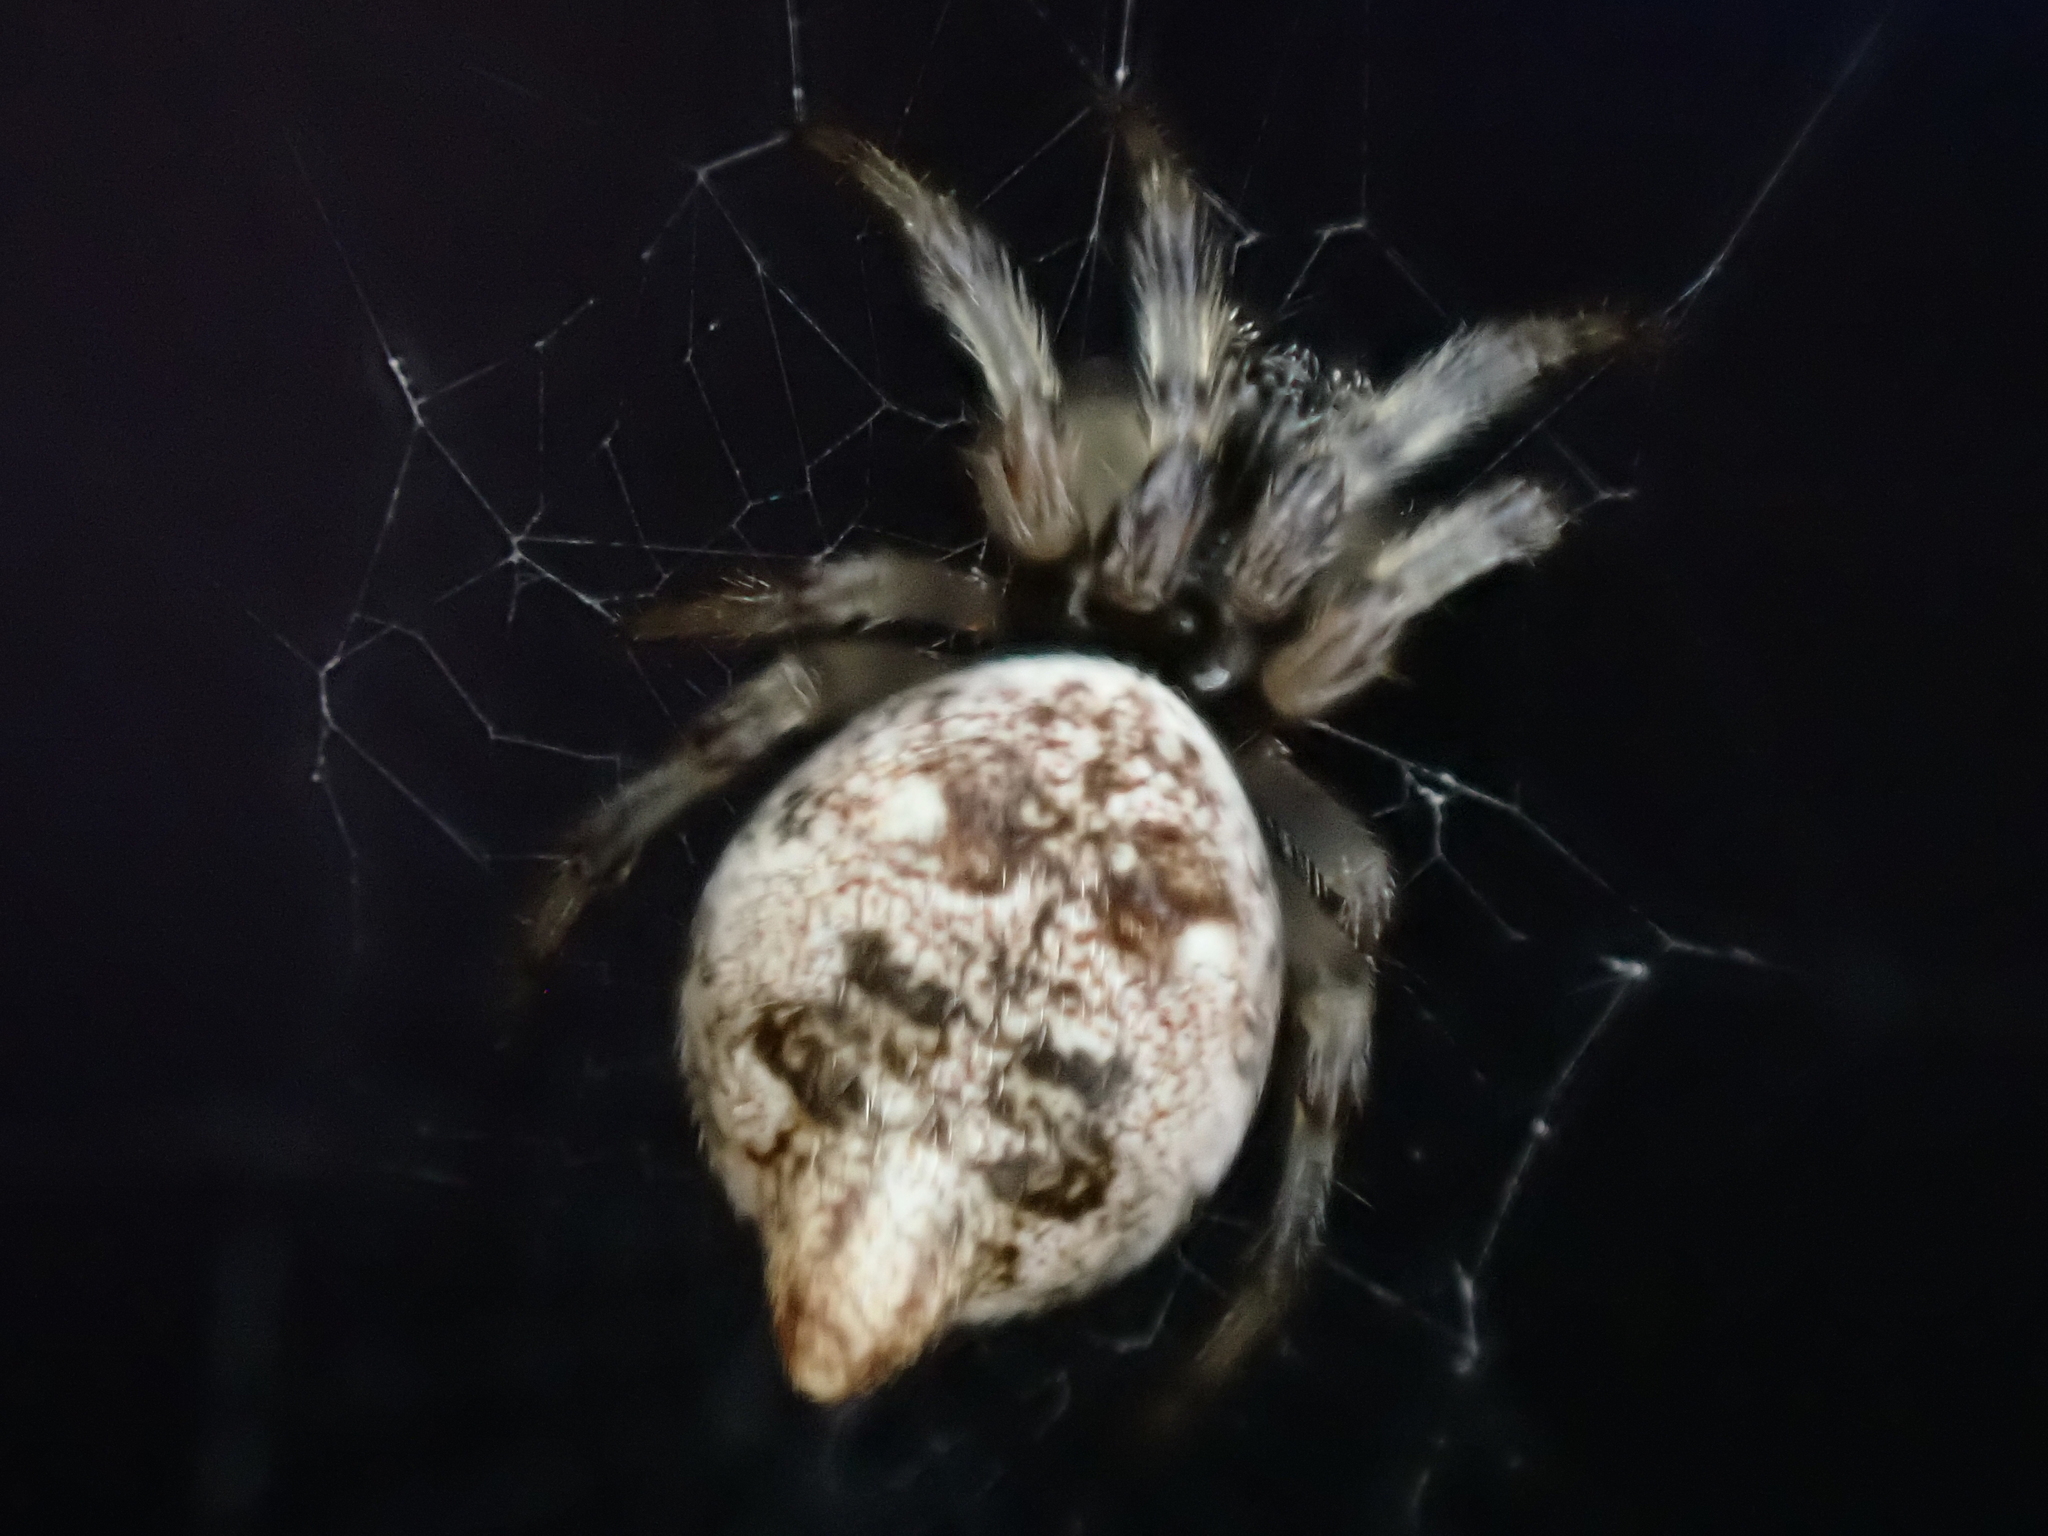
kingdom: Animalia
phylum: Arthropoda
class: Arachnida
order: Araneae
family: Araneidae
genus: Cyclosa
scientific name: Cyclosa turbinata
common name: Orb weavers
